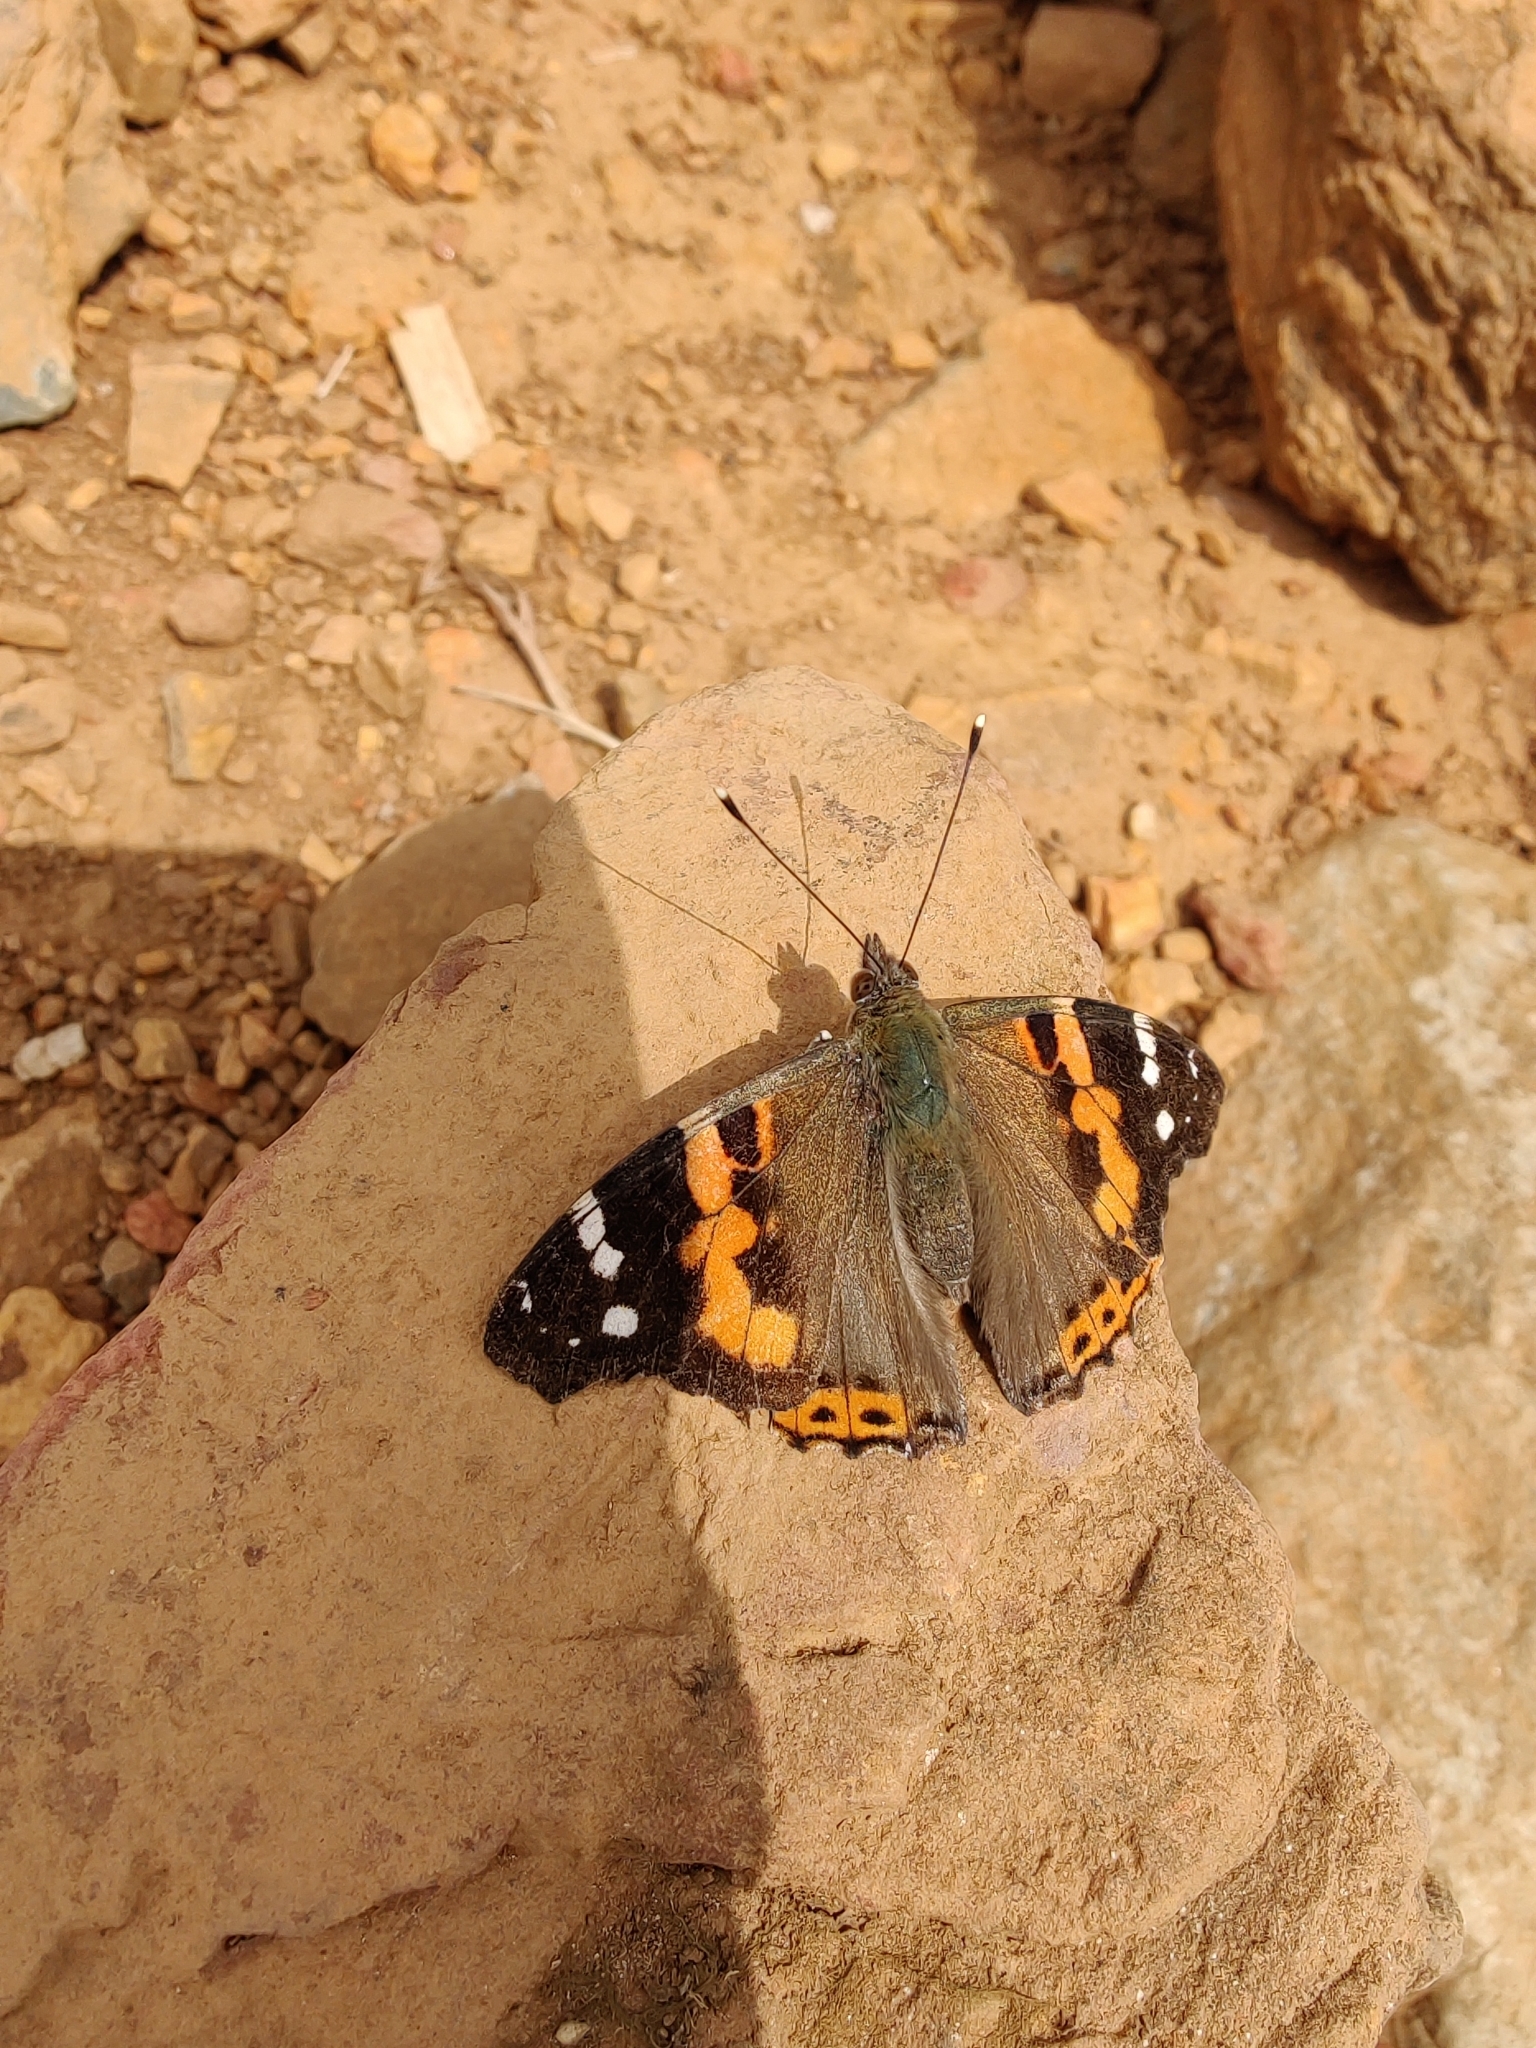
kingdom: Animalia
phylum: Arthropoda
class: Insecta
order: Lepidoptera
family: Nymphalidae
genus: Vanessa
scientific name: Vanessa indica
